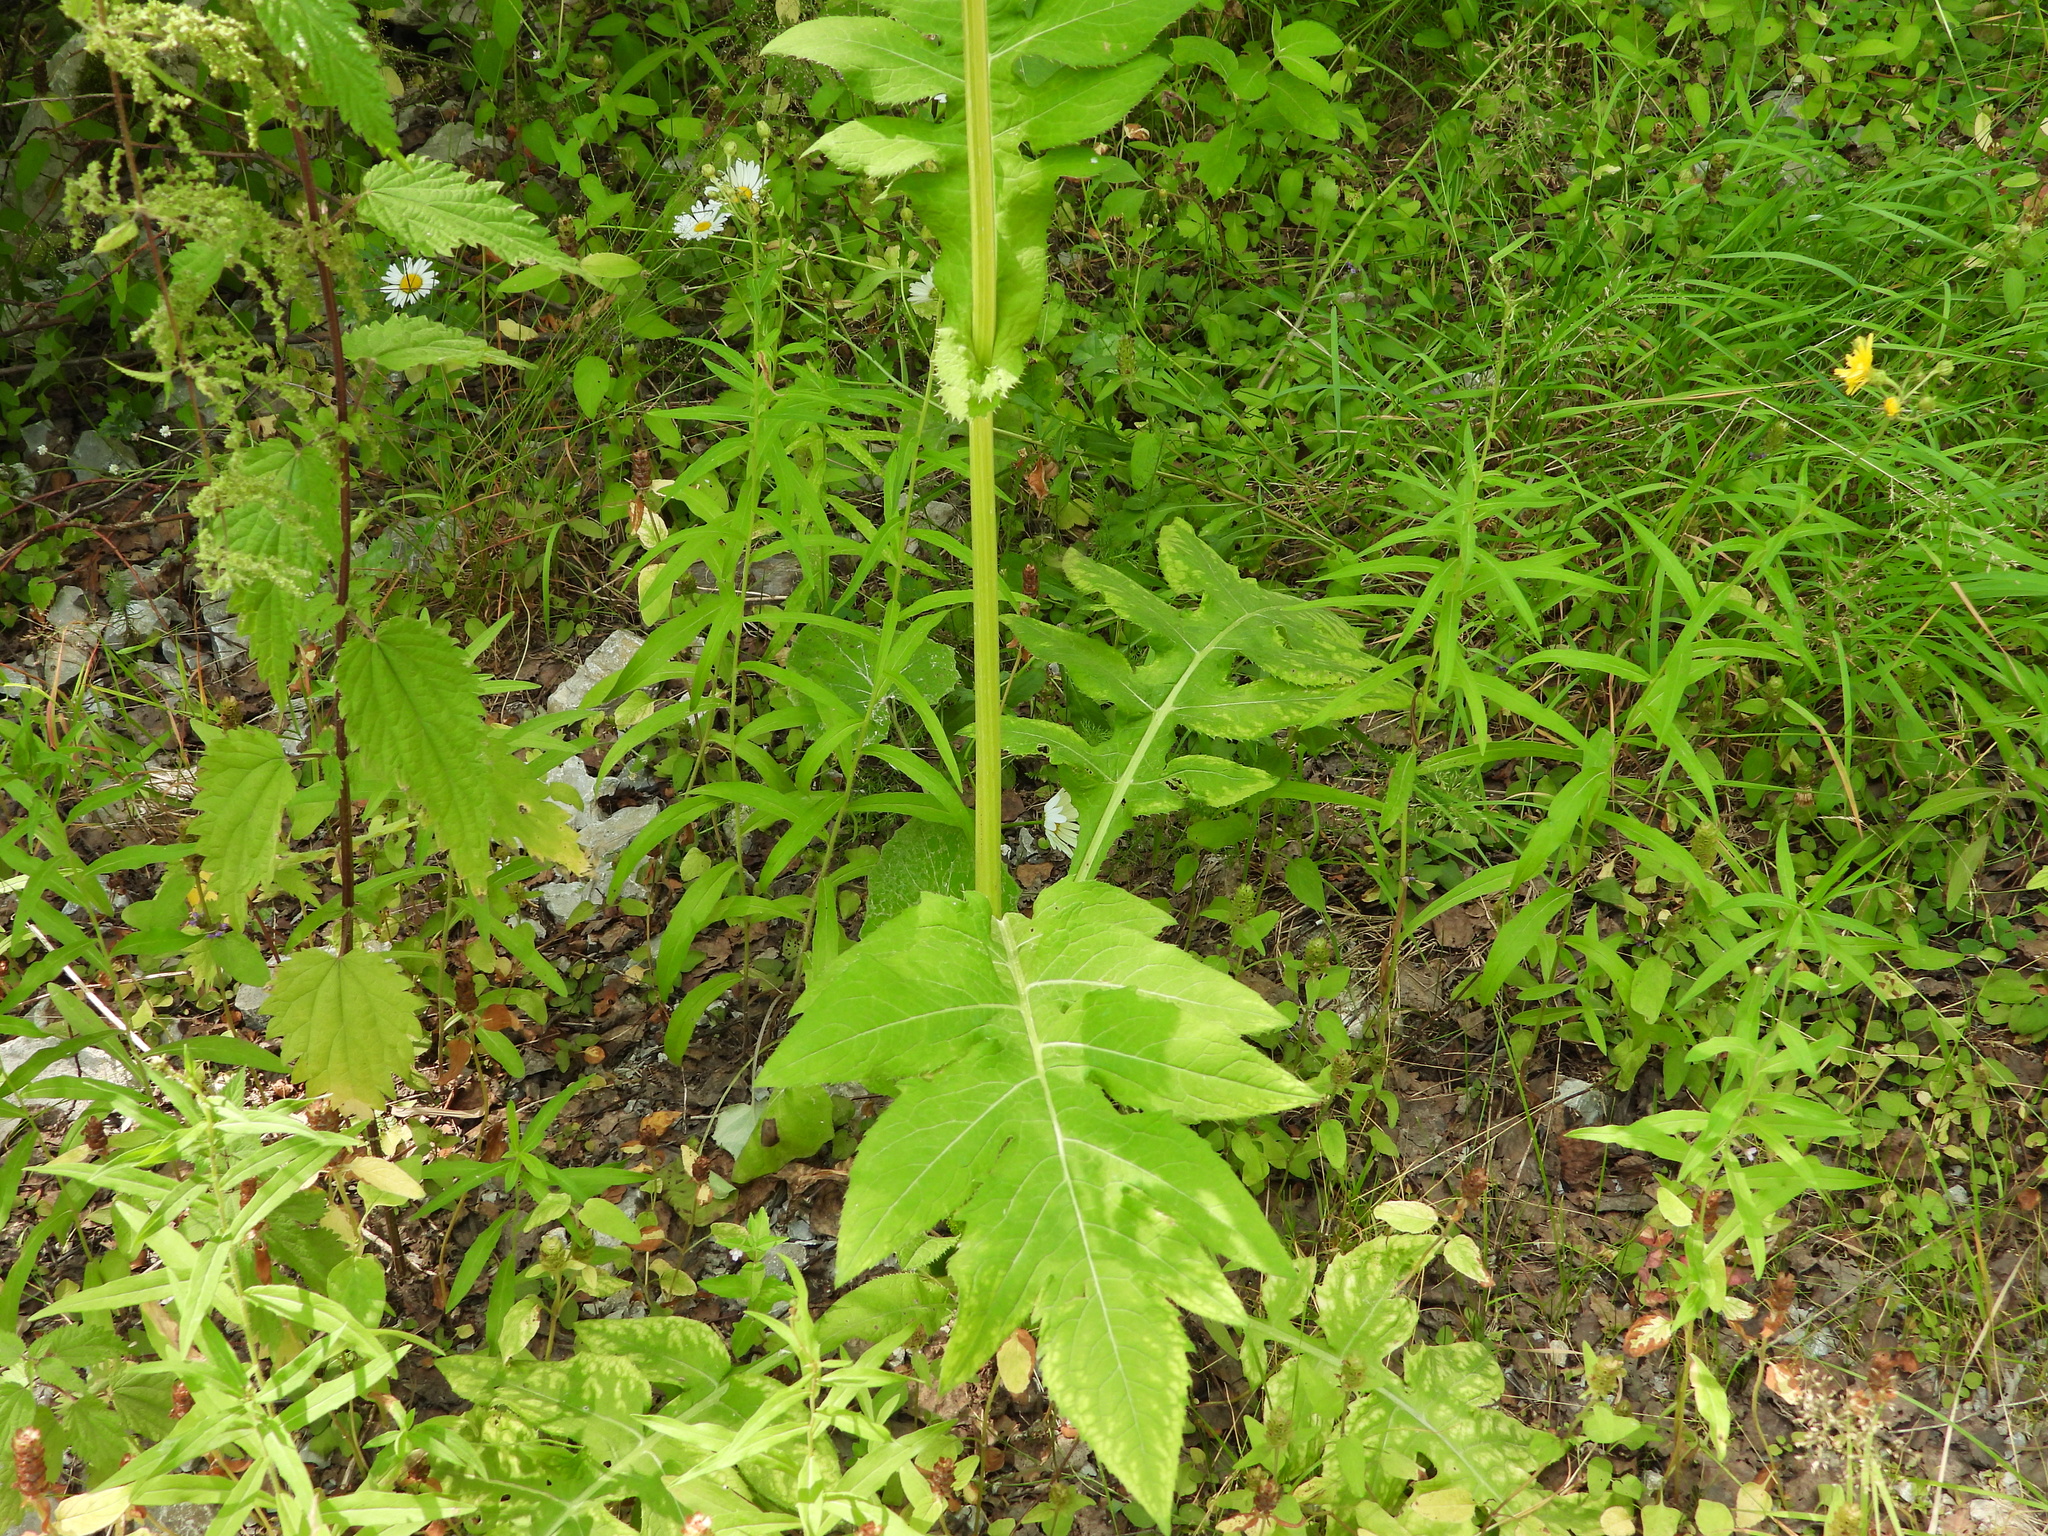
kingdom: Plantae
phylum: Tracheophyta
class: Magnoliopsida
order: Asterales
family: Asteraceae
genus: Cirsium
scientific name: Cirsium oleraceum
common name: Cabbage thistle
